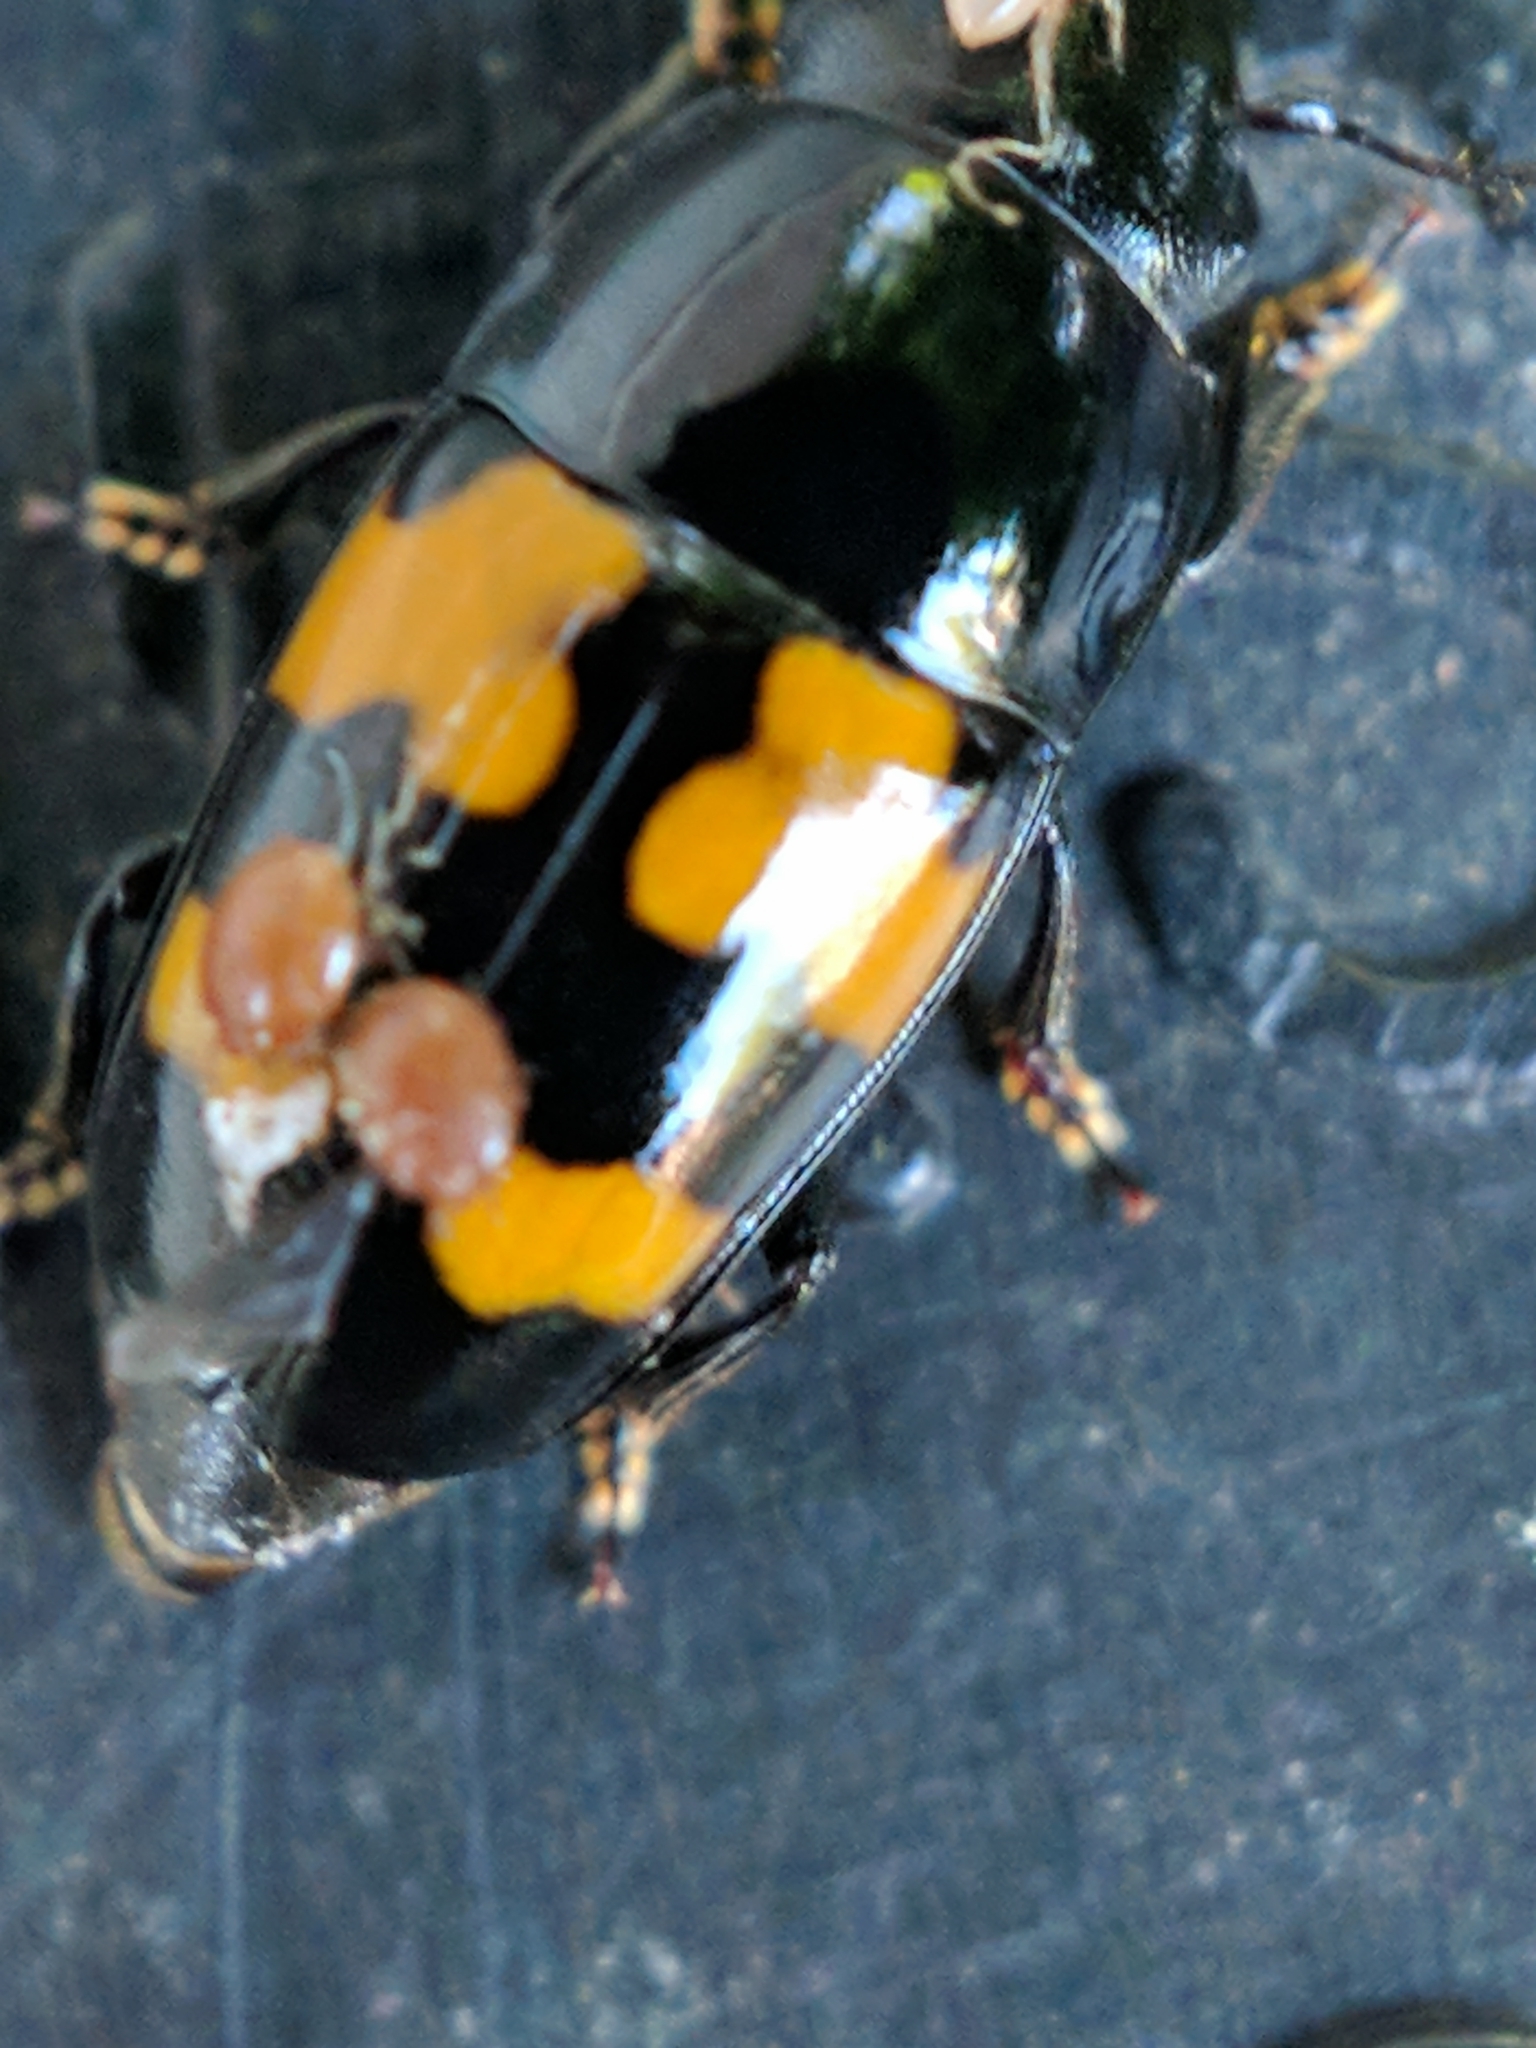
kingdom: Animalia
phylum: Arthropoda
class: Insecta
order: Coleoptera
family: Nitidulidae
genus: Glischrochilus
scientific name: Glischrochilus fasciatus
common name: Picnic beetle
